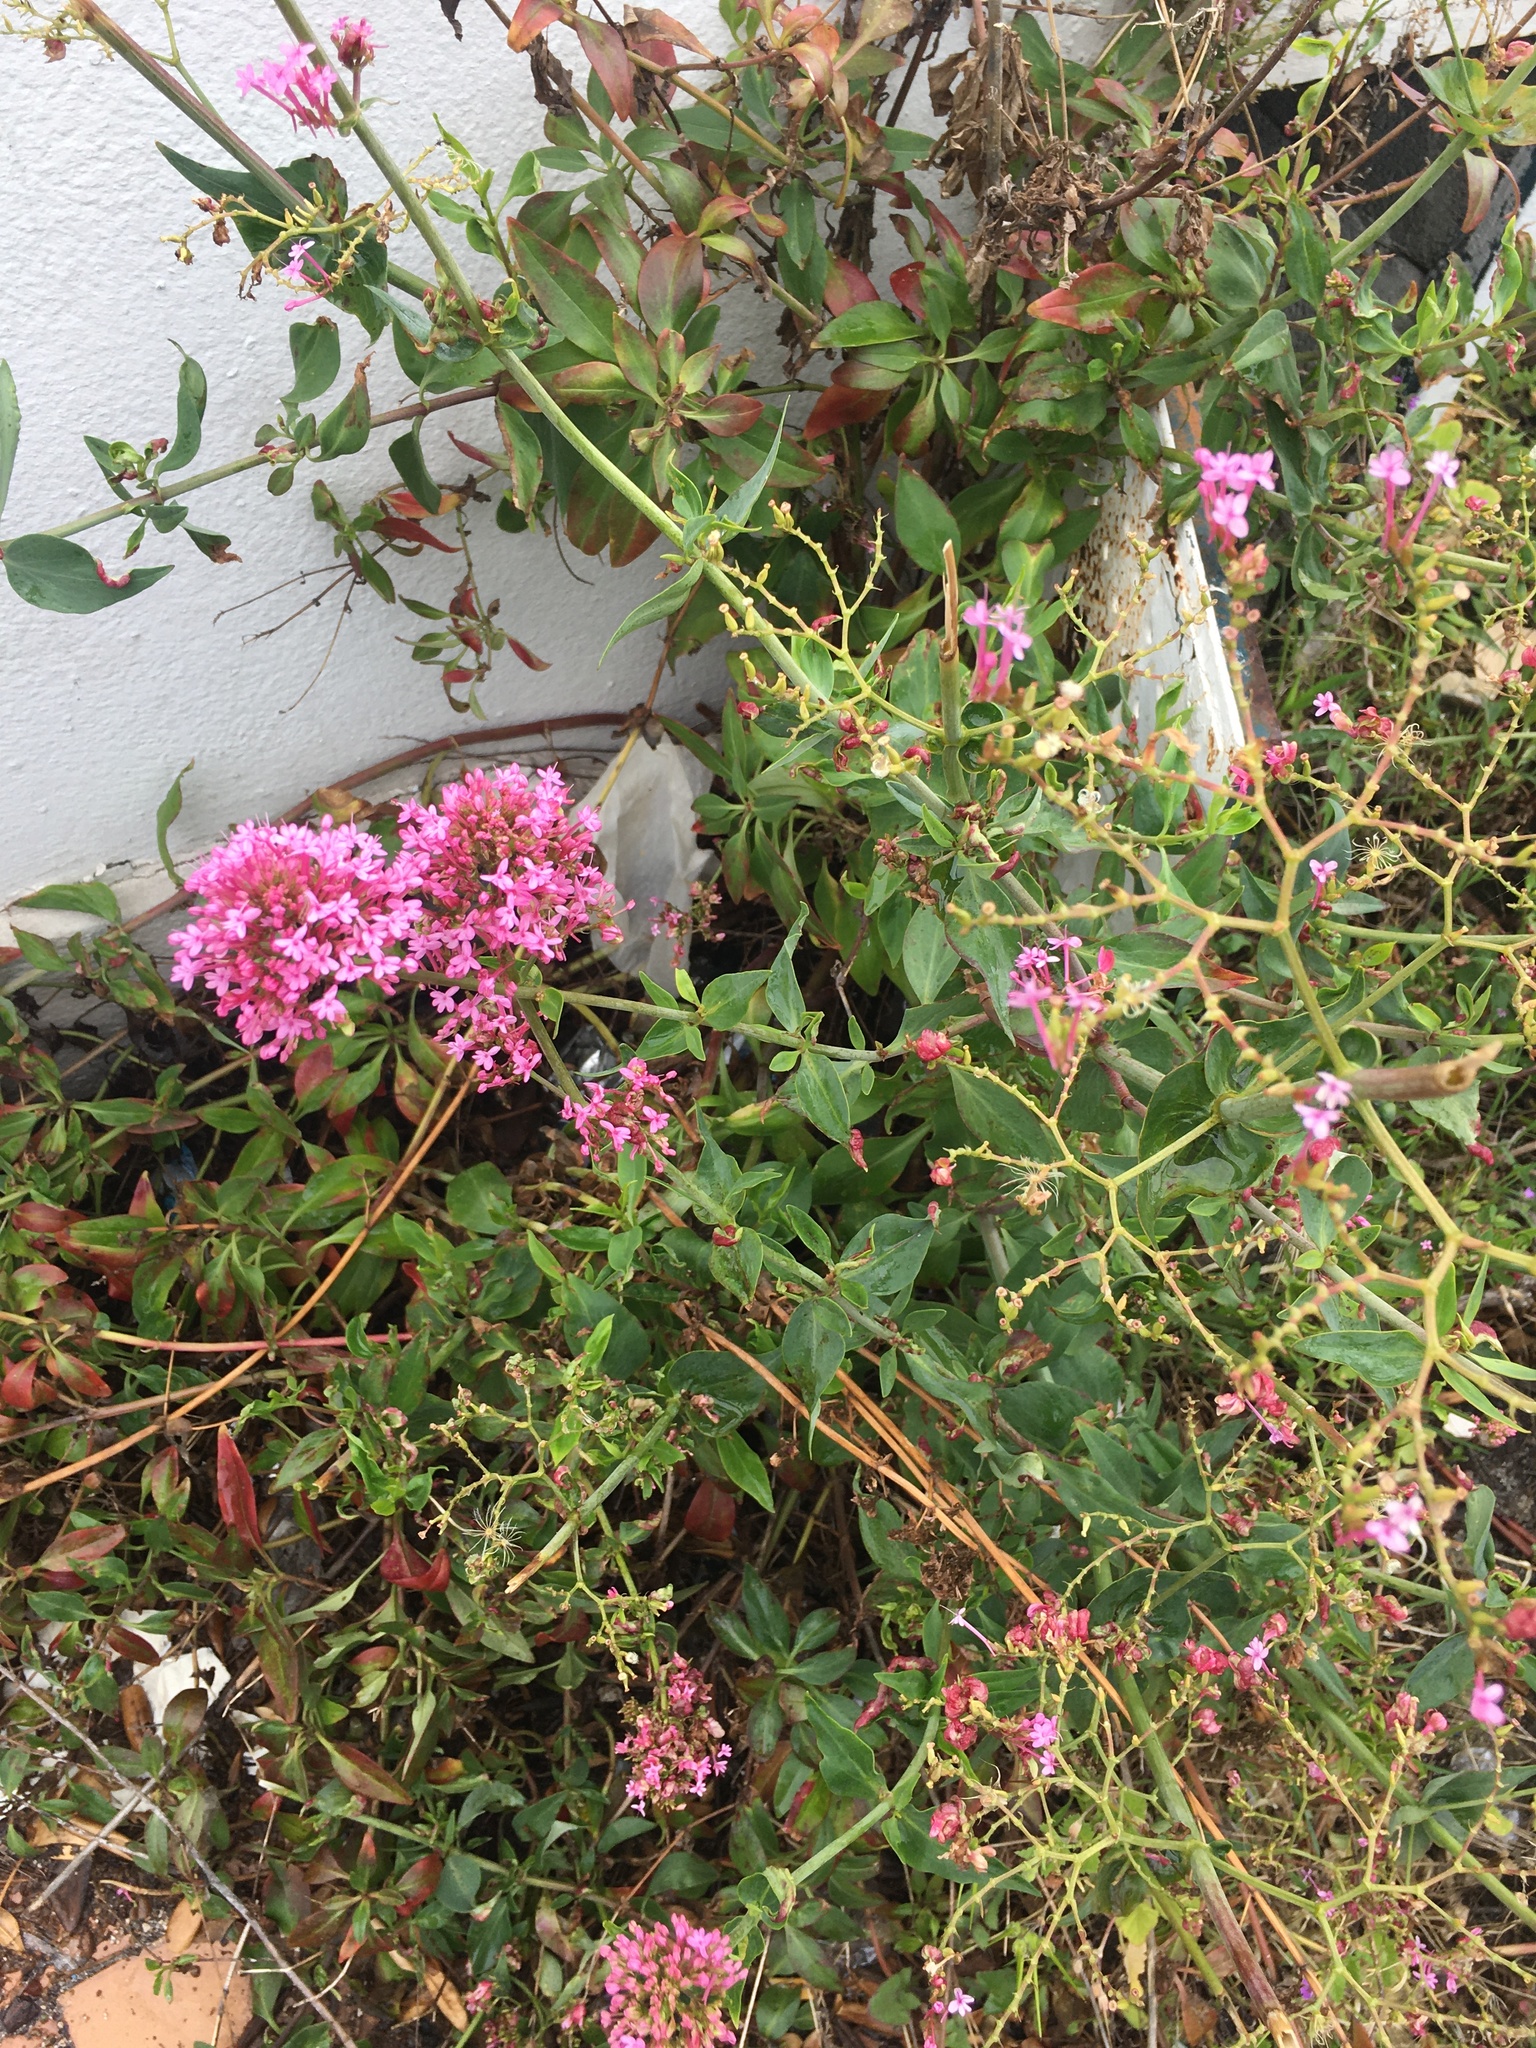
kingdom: Plantae
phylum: Tracheophyta
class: Magnoliopsida
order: Dipsacales
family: Caprifoliaceae
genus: Centranthus
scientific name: Centranthus ruber
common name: Red valerian
